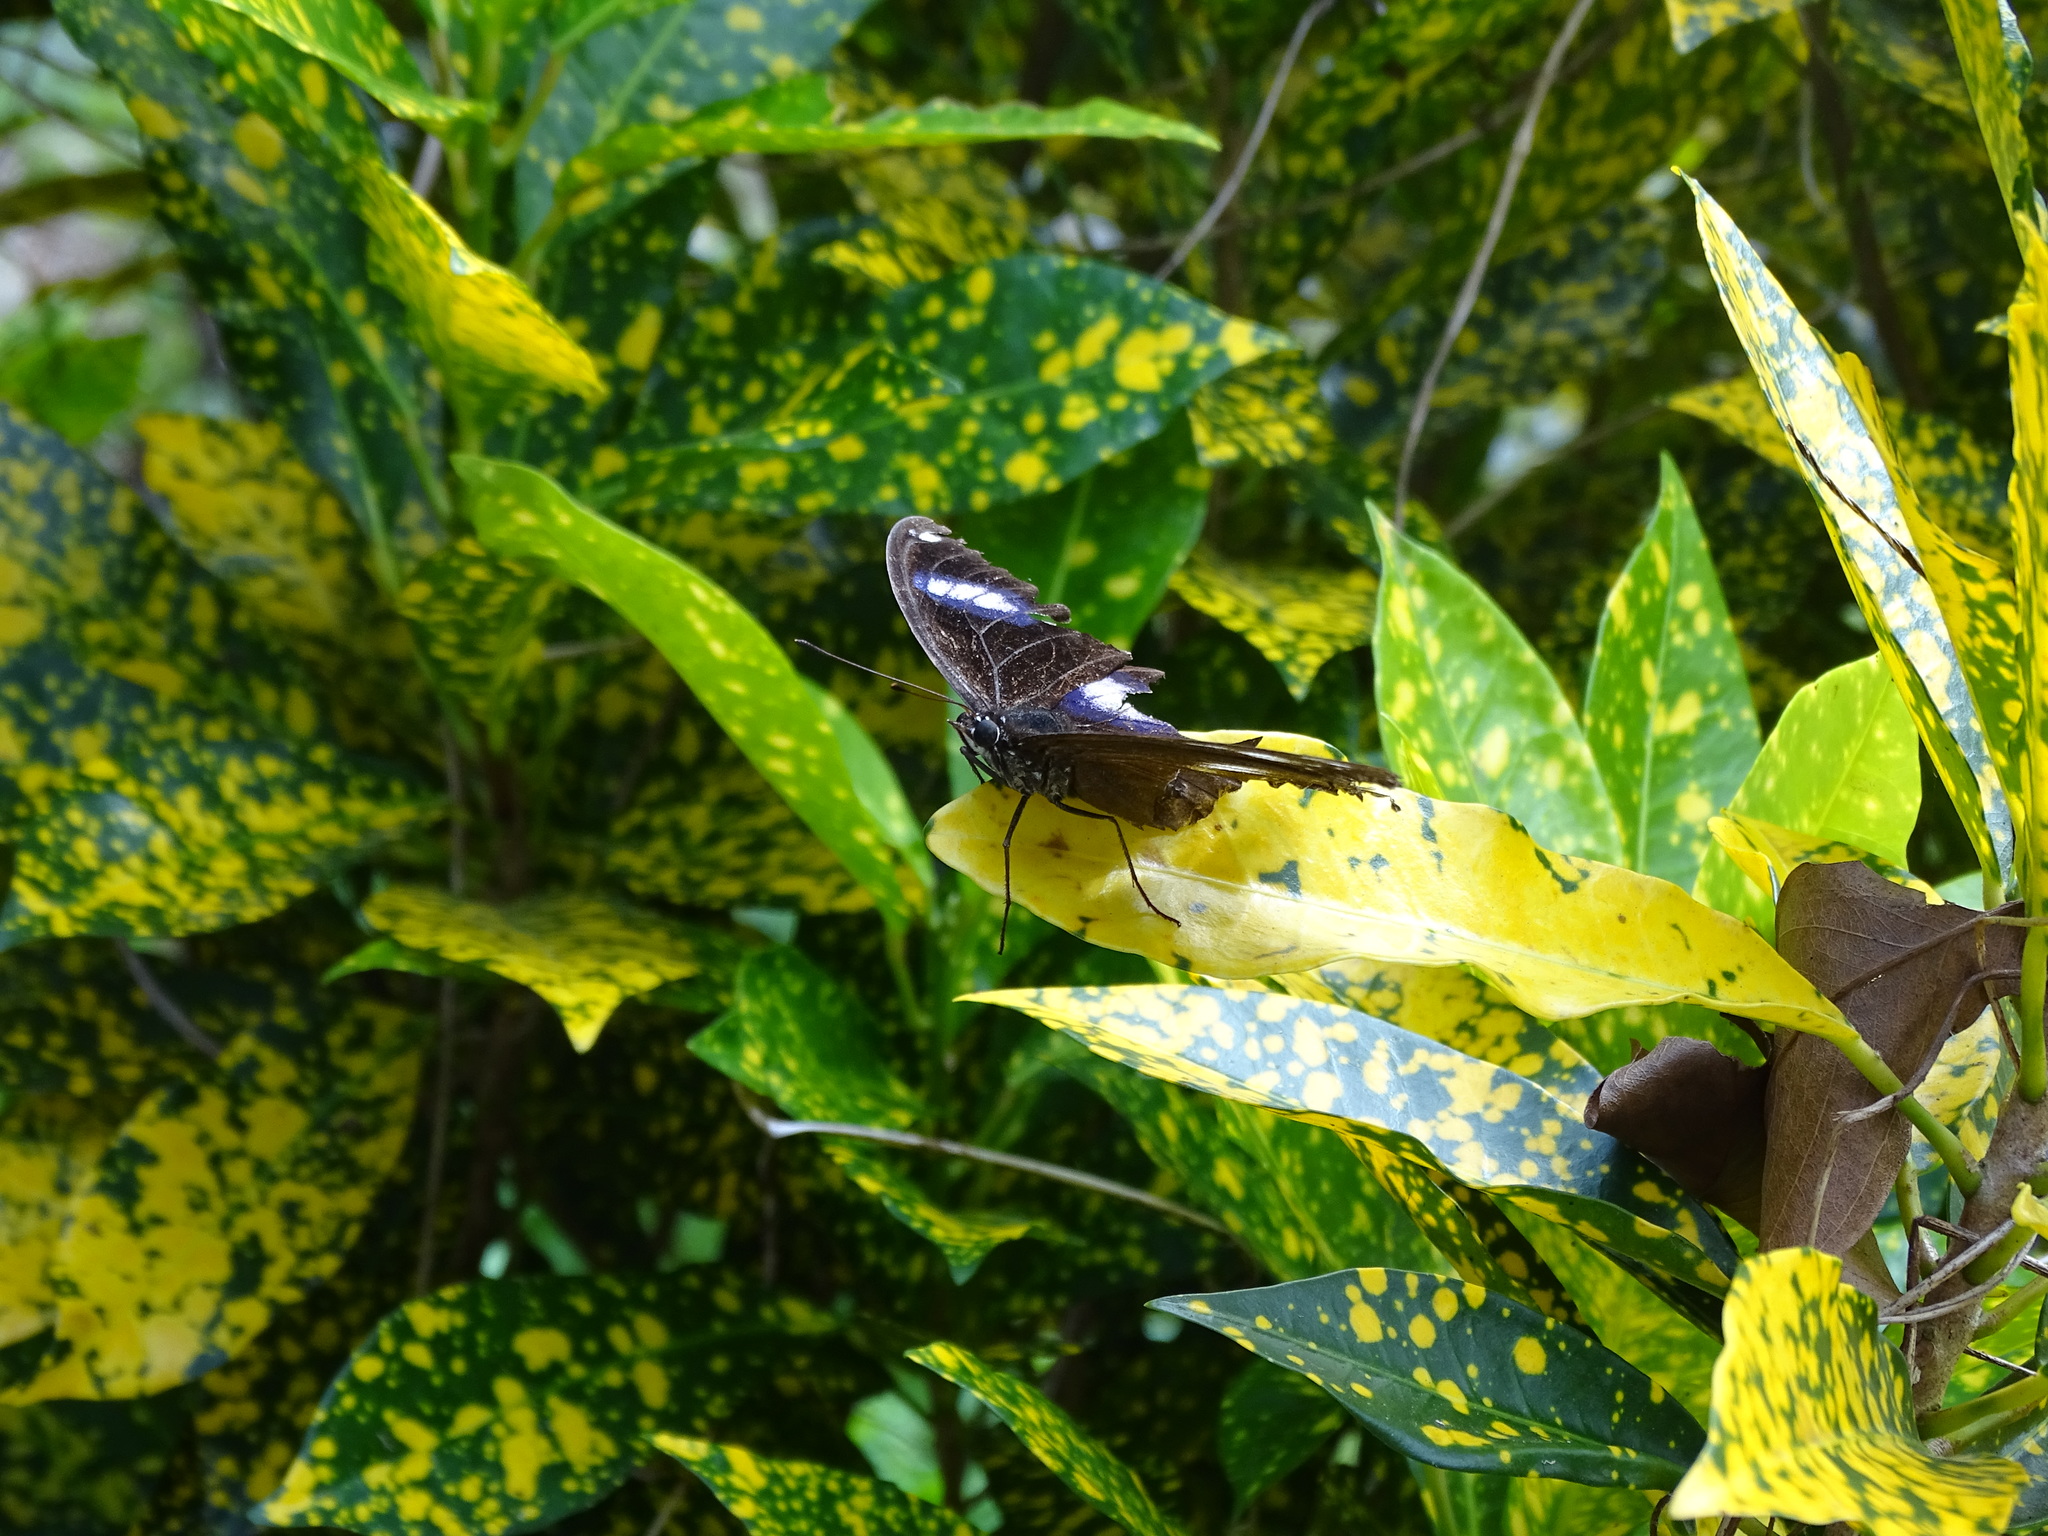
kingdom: Animalia
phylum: Arthropoda
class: Insecta
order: Lepidoptera
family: Nymphalidae
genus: Hypolimnas
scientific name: Hypolimnas bolina
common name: Great eggfly
